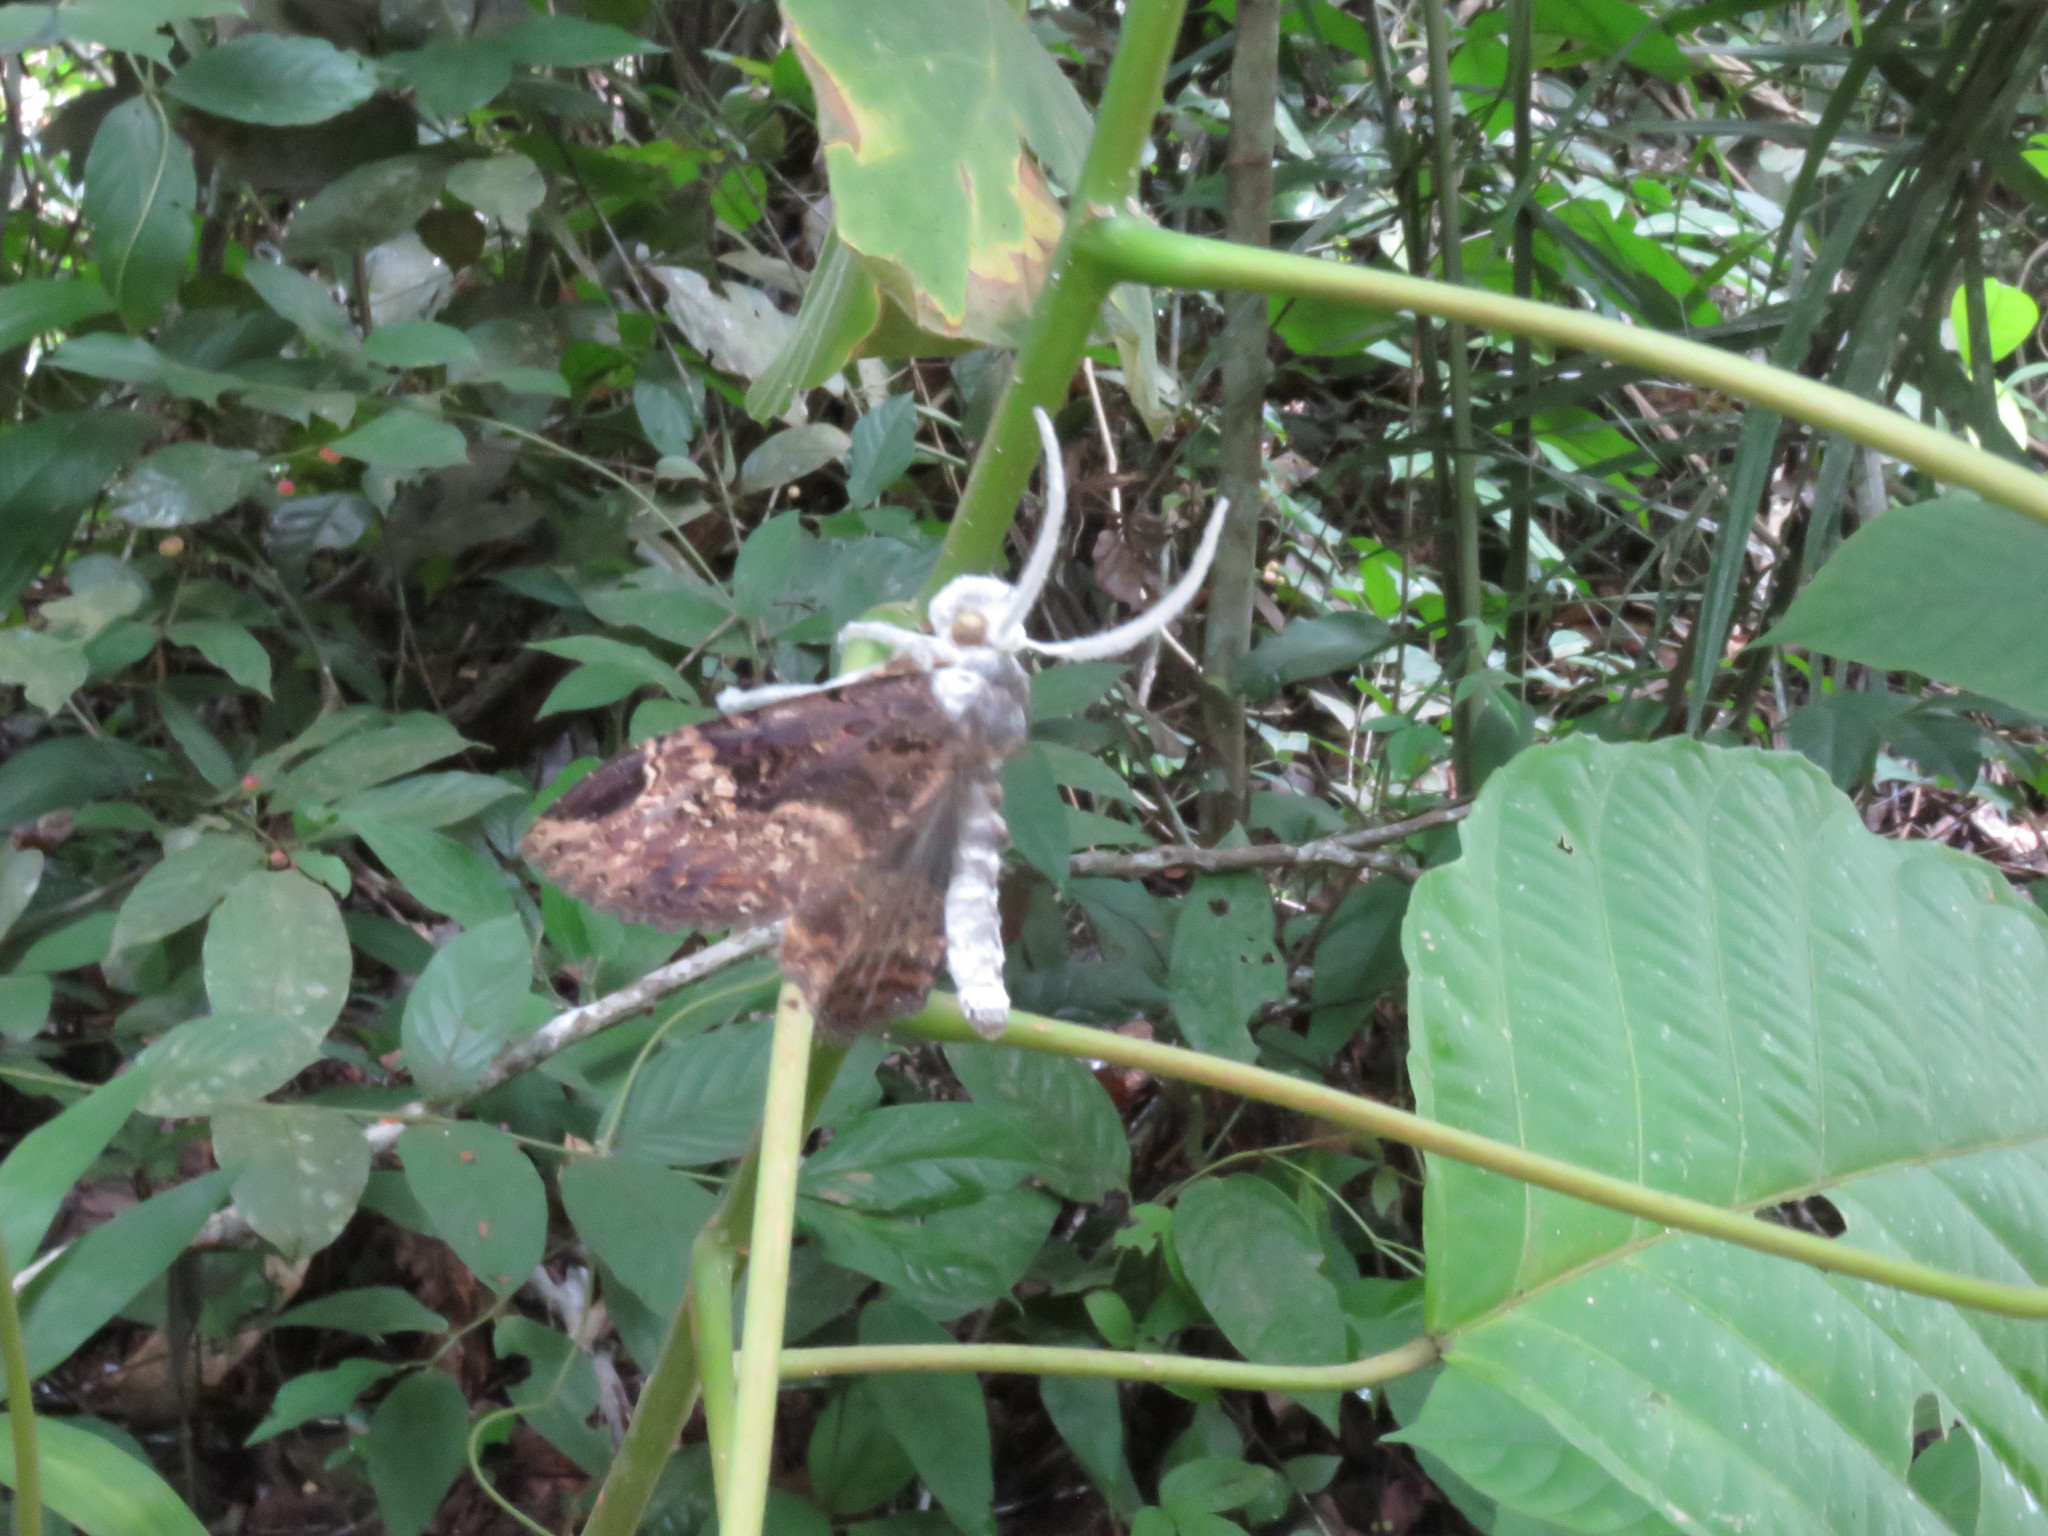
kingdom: Animalia
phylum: Arthropoda
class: Insecta
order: Lepidoptera
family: Erebidae
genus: Ramphia
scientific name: Ramphia albizona
